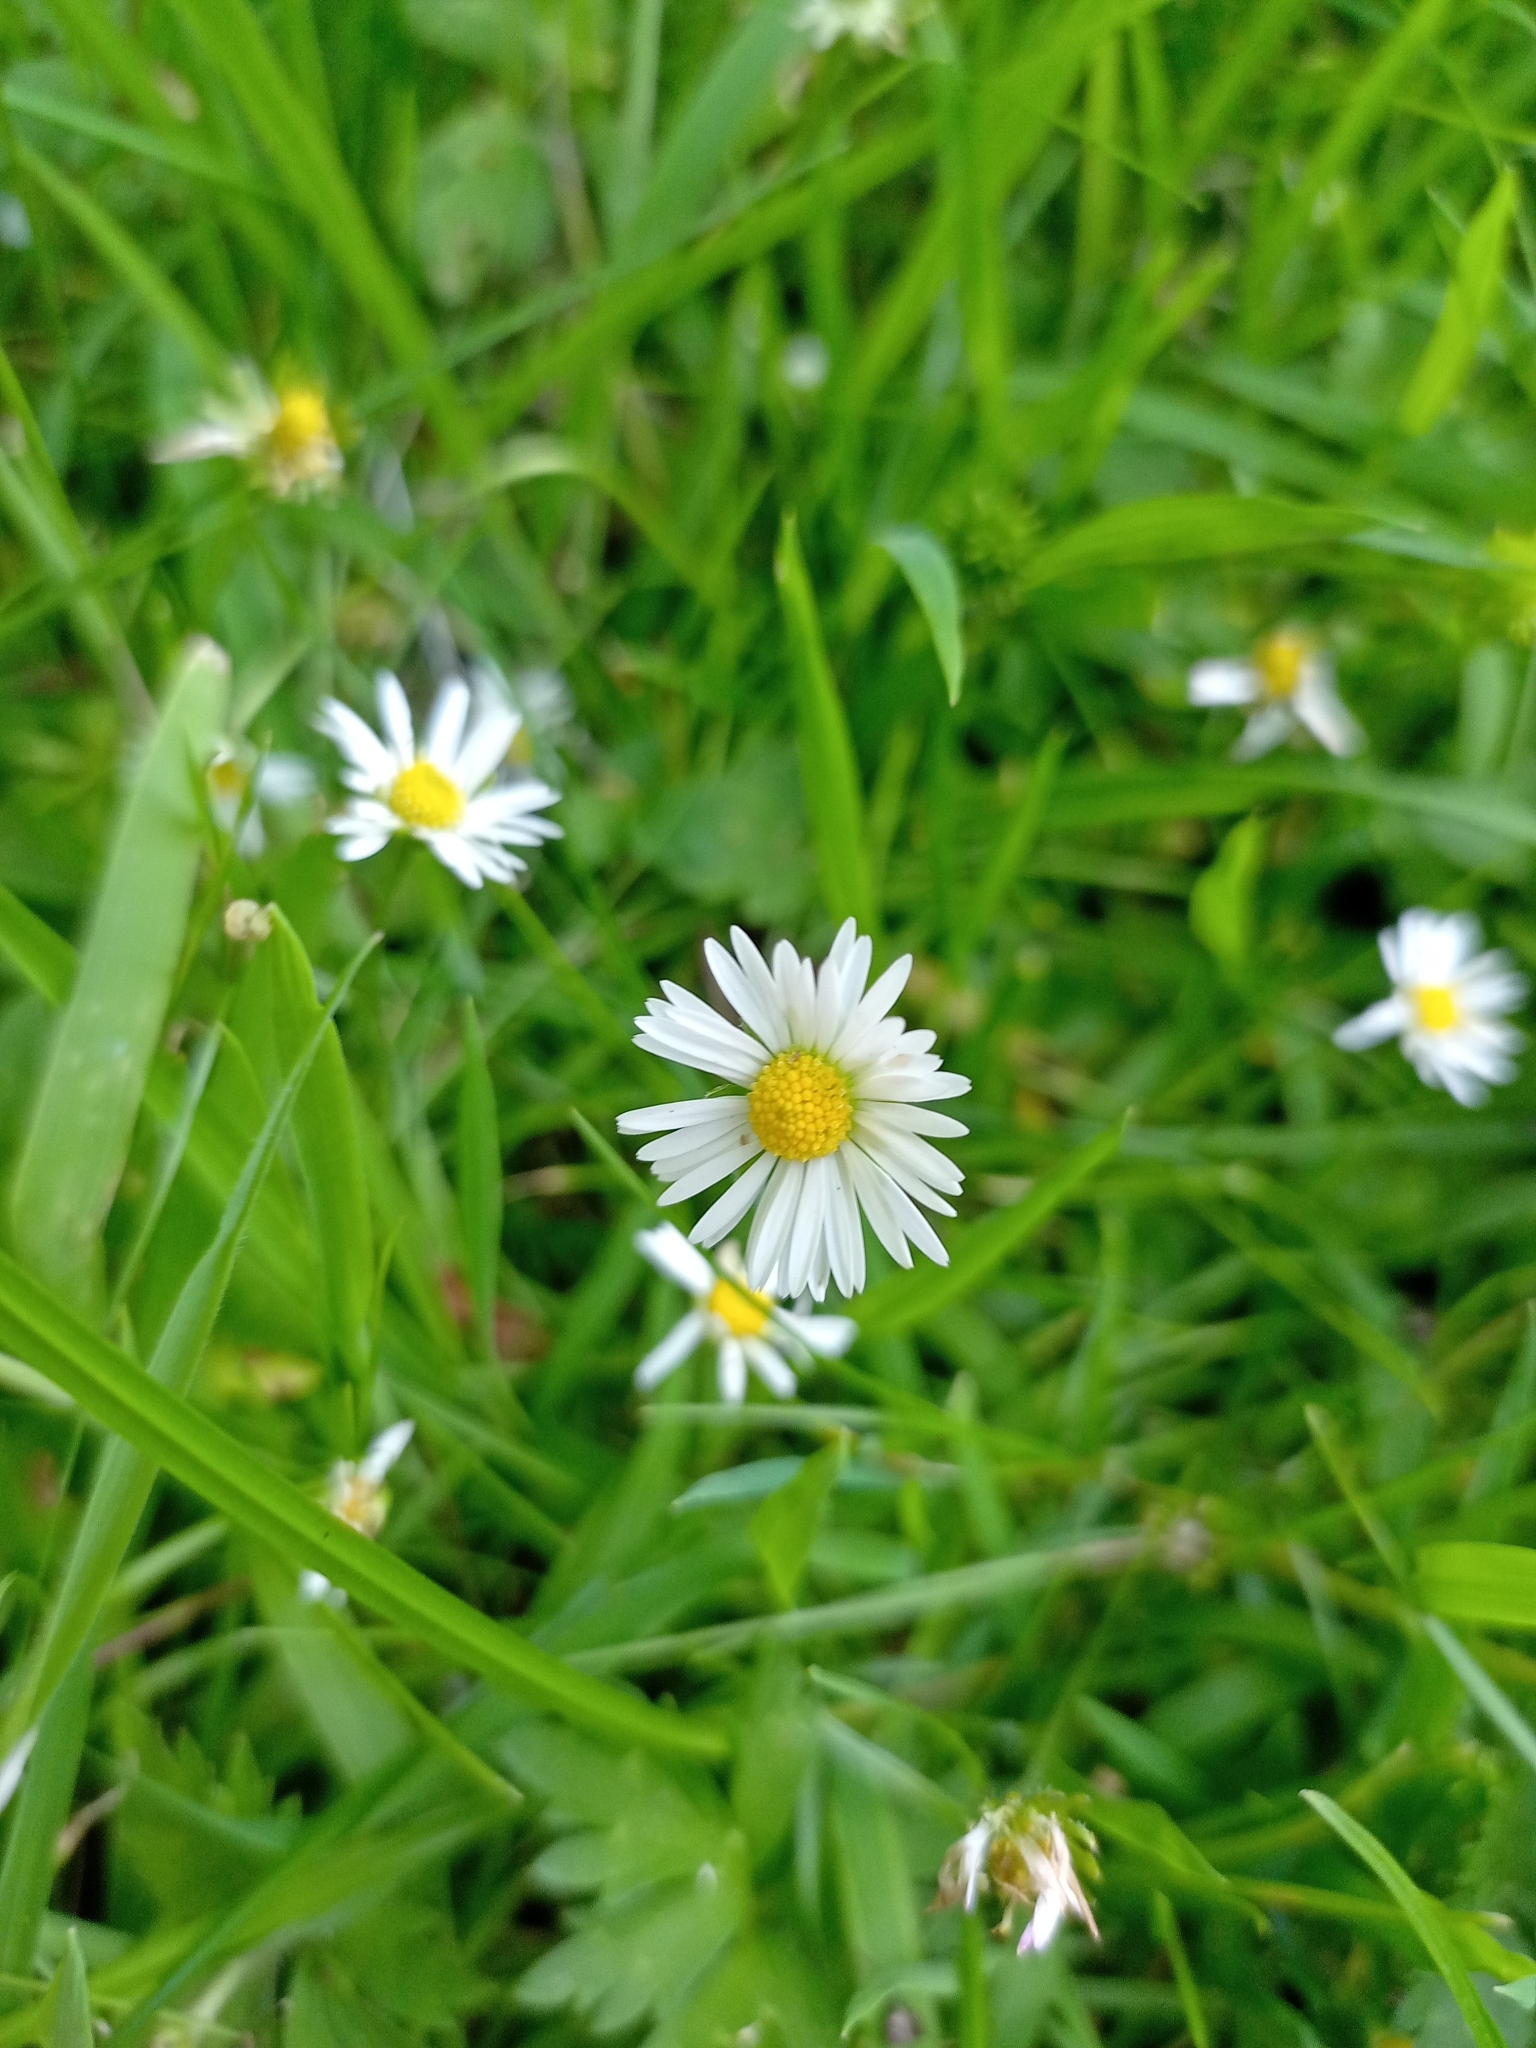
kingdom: Plantae
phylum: Tracheophyta
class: Magnoliopsida
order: Asterales
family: Asteraceae
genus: Bellis
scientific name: Bellis perennis
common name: Lawndaisy
